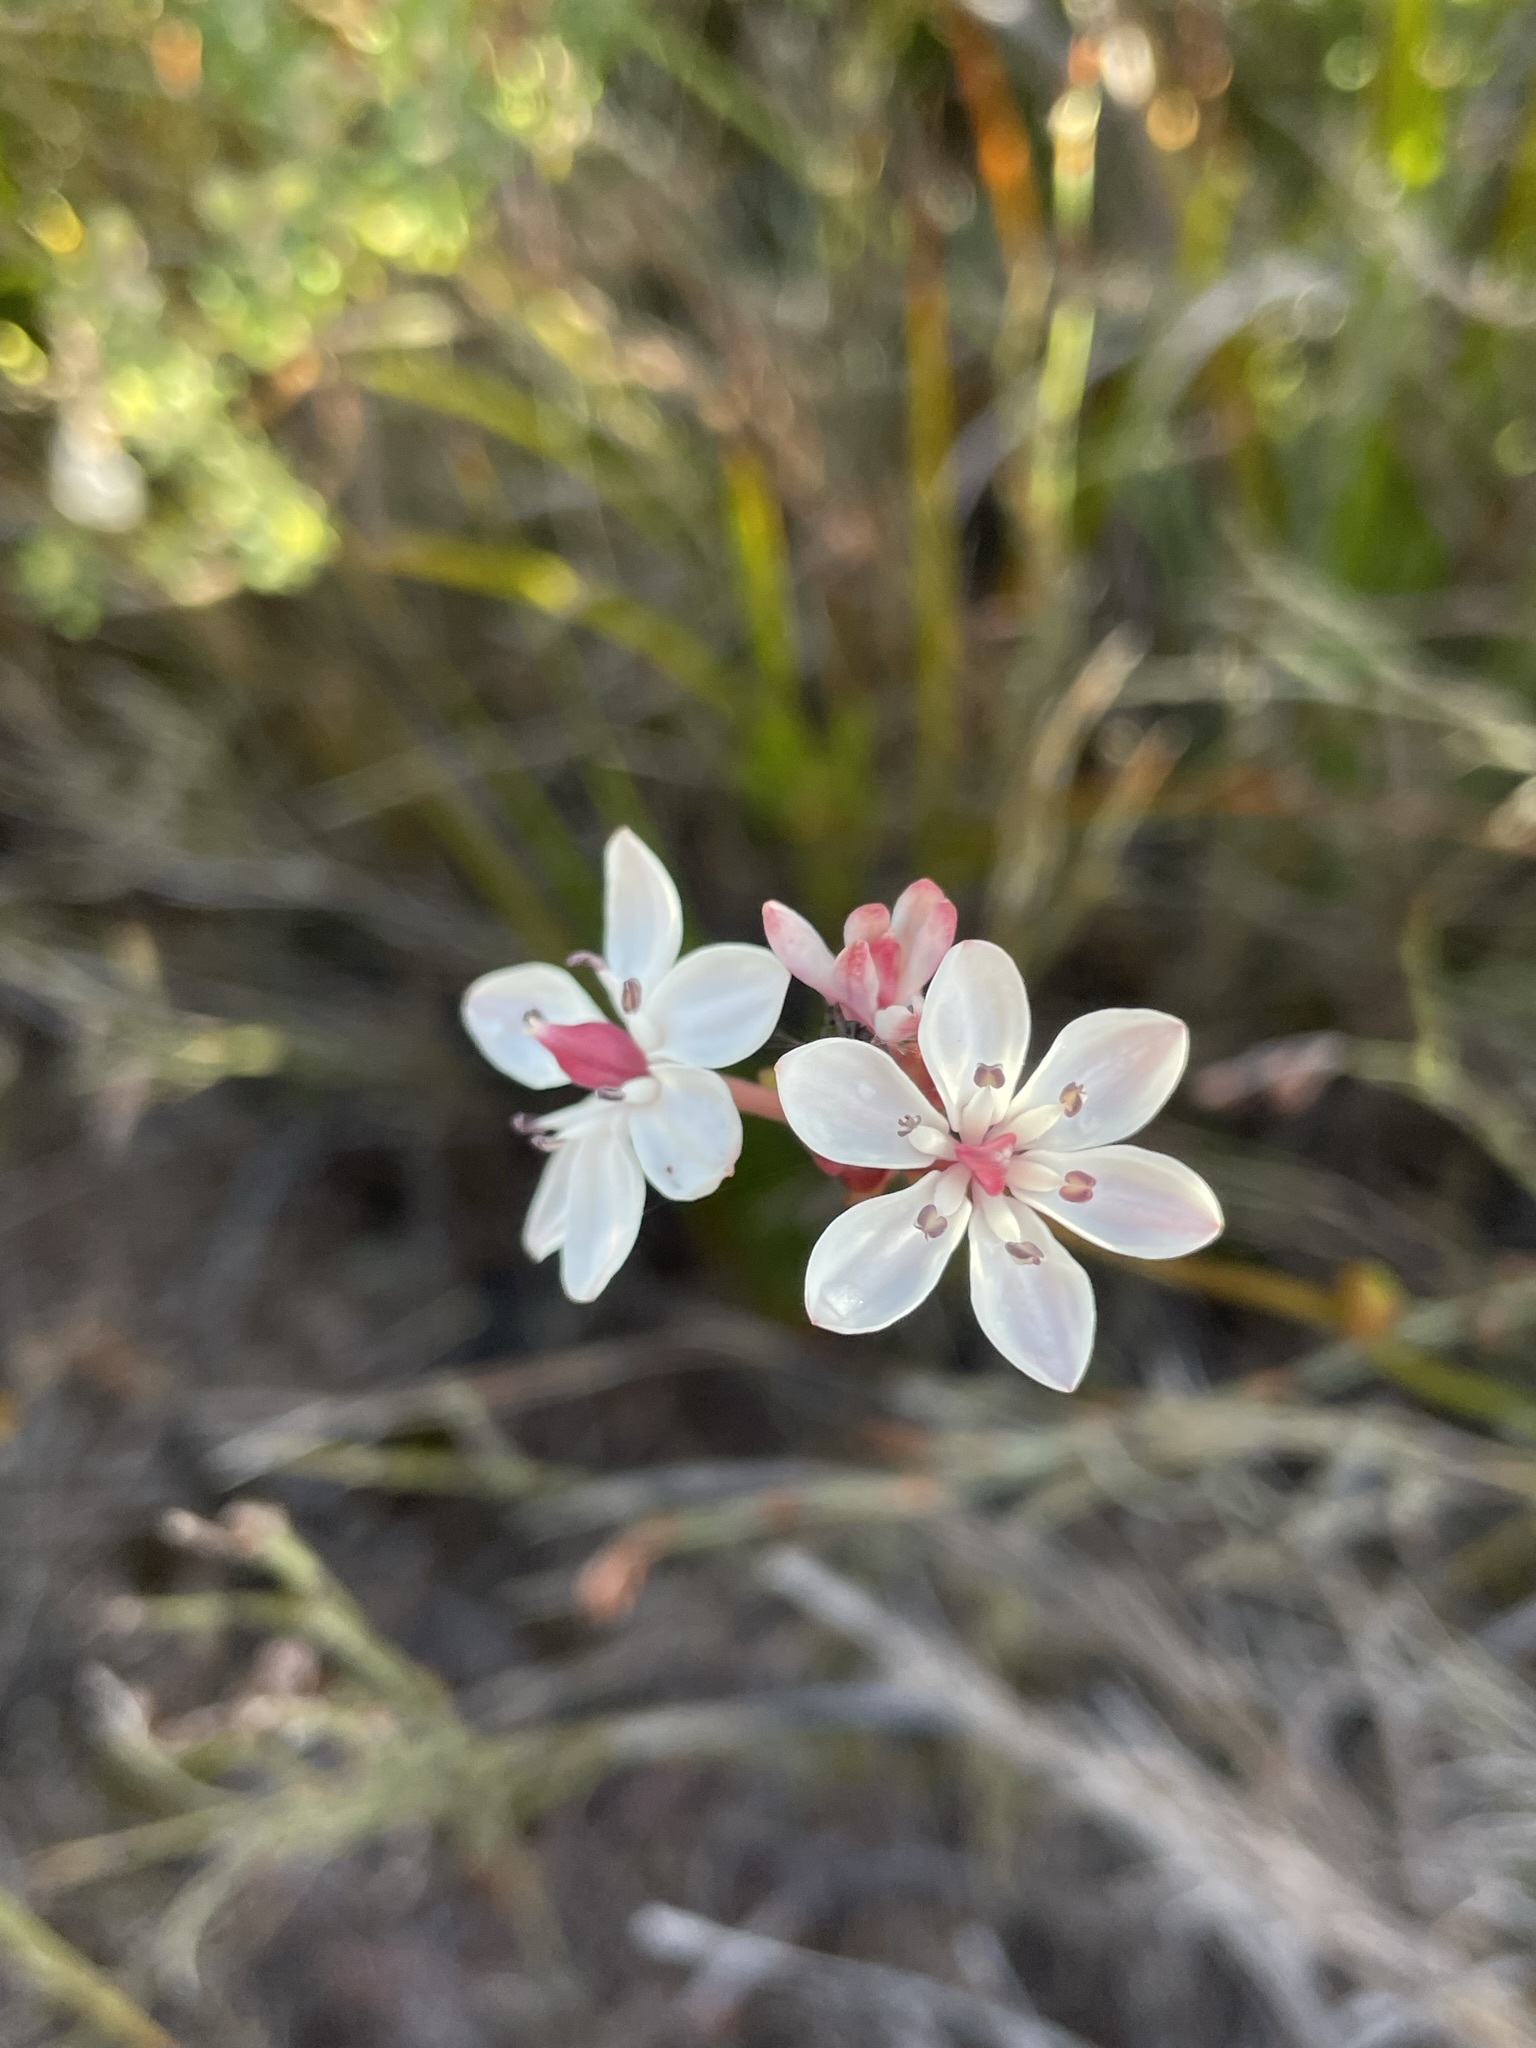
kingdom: Plantae
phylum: Tracheophyta
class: Liliopsida
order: Liliales
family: Colchicaceae
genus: Burchardia
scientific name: Burchardia umbellata
